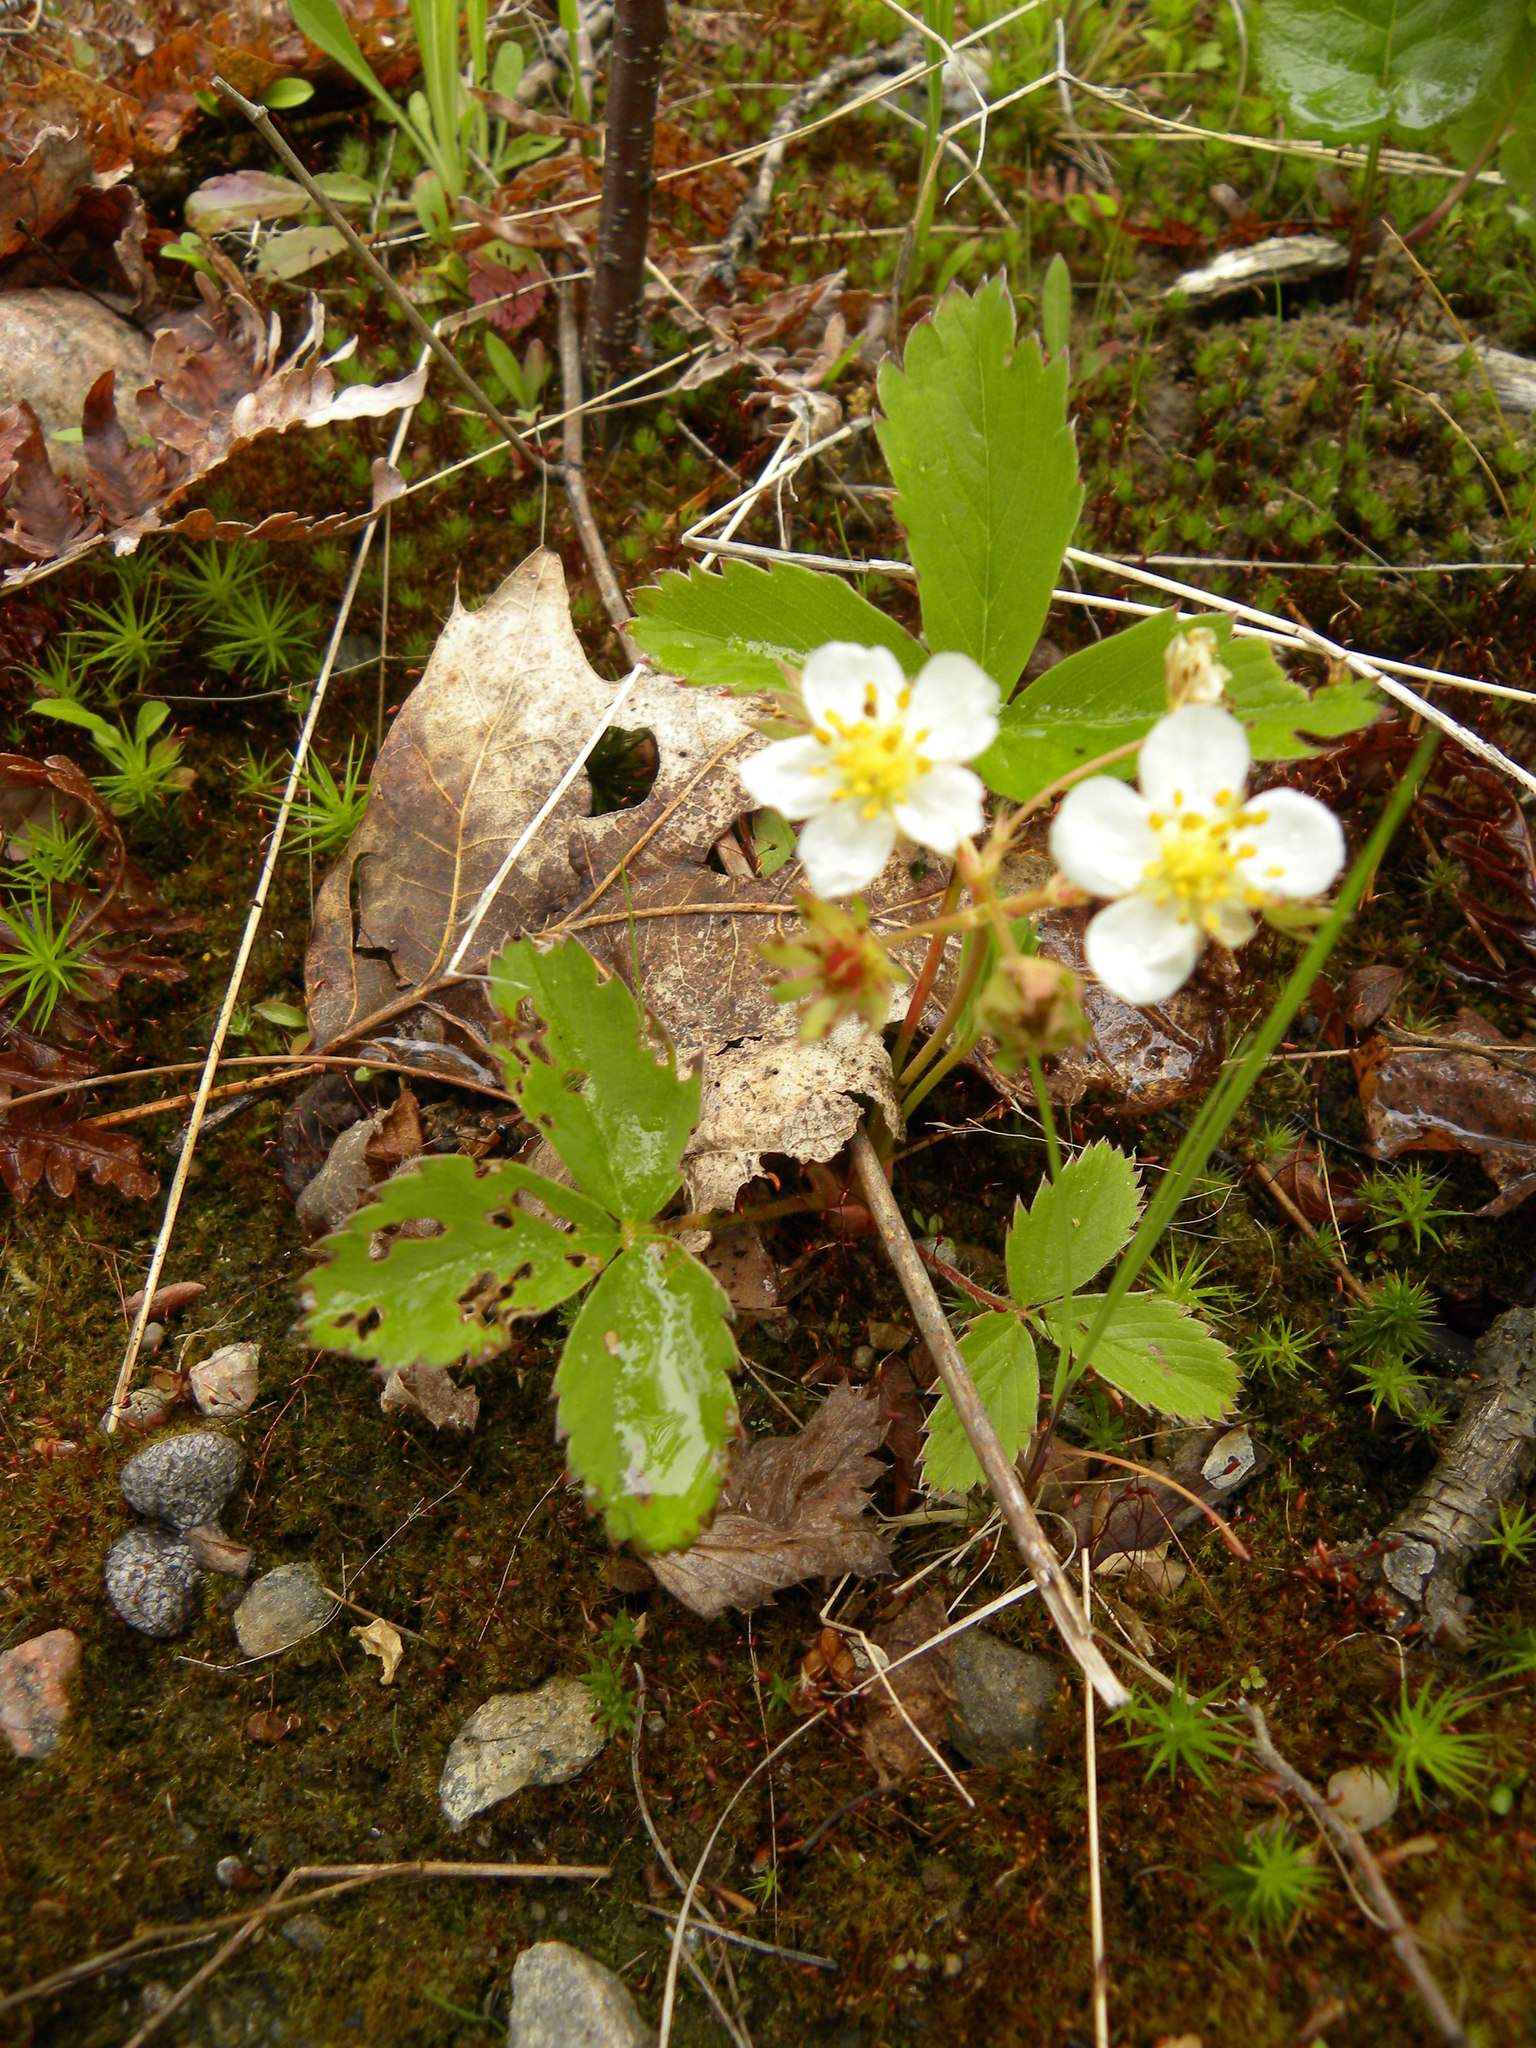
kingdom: Plantae
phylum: Tracheophyta
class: Magnoliopsida
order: Rosales
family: Rosaceae
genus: Fragaria
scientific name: Fragaria virginiana
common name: Thickleaved wild strawberry
